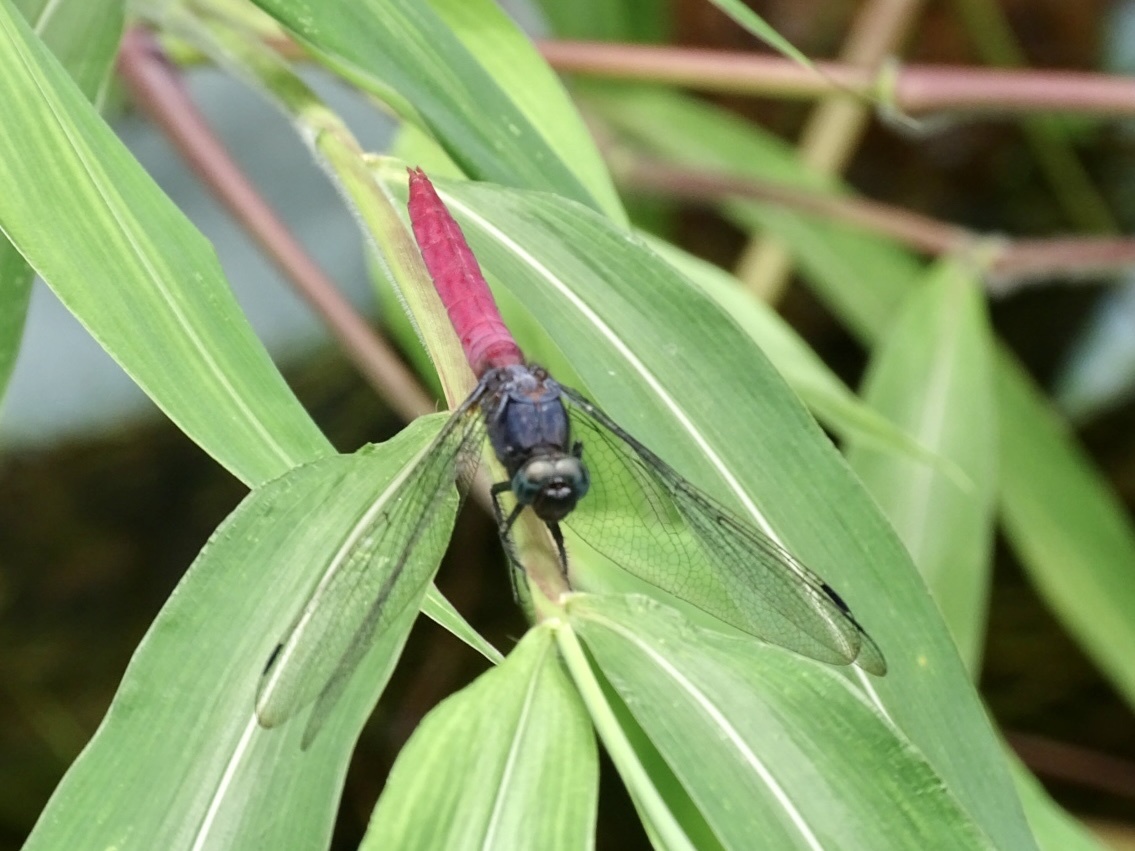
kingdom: Animalia
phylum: Arthropoda
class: Insecta
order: Odonata
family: Libellulidae
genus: Orthetrum
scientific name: Orthetrum pruinosum
